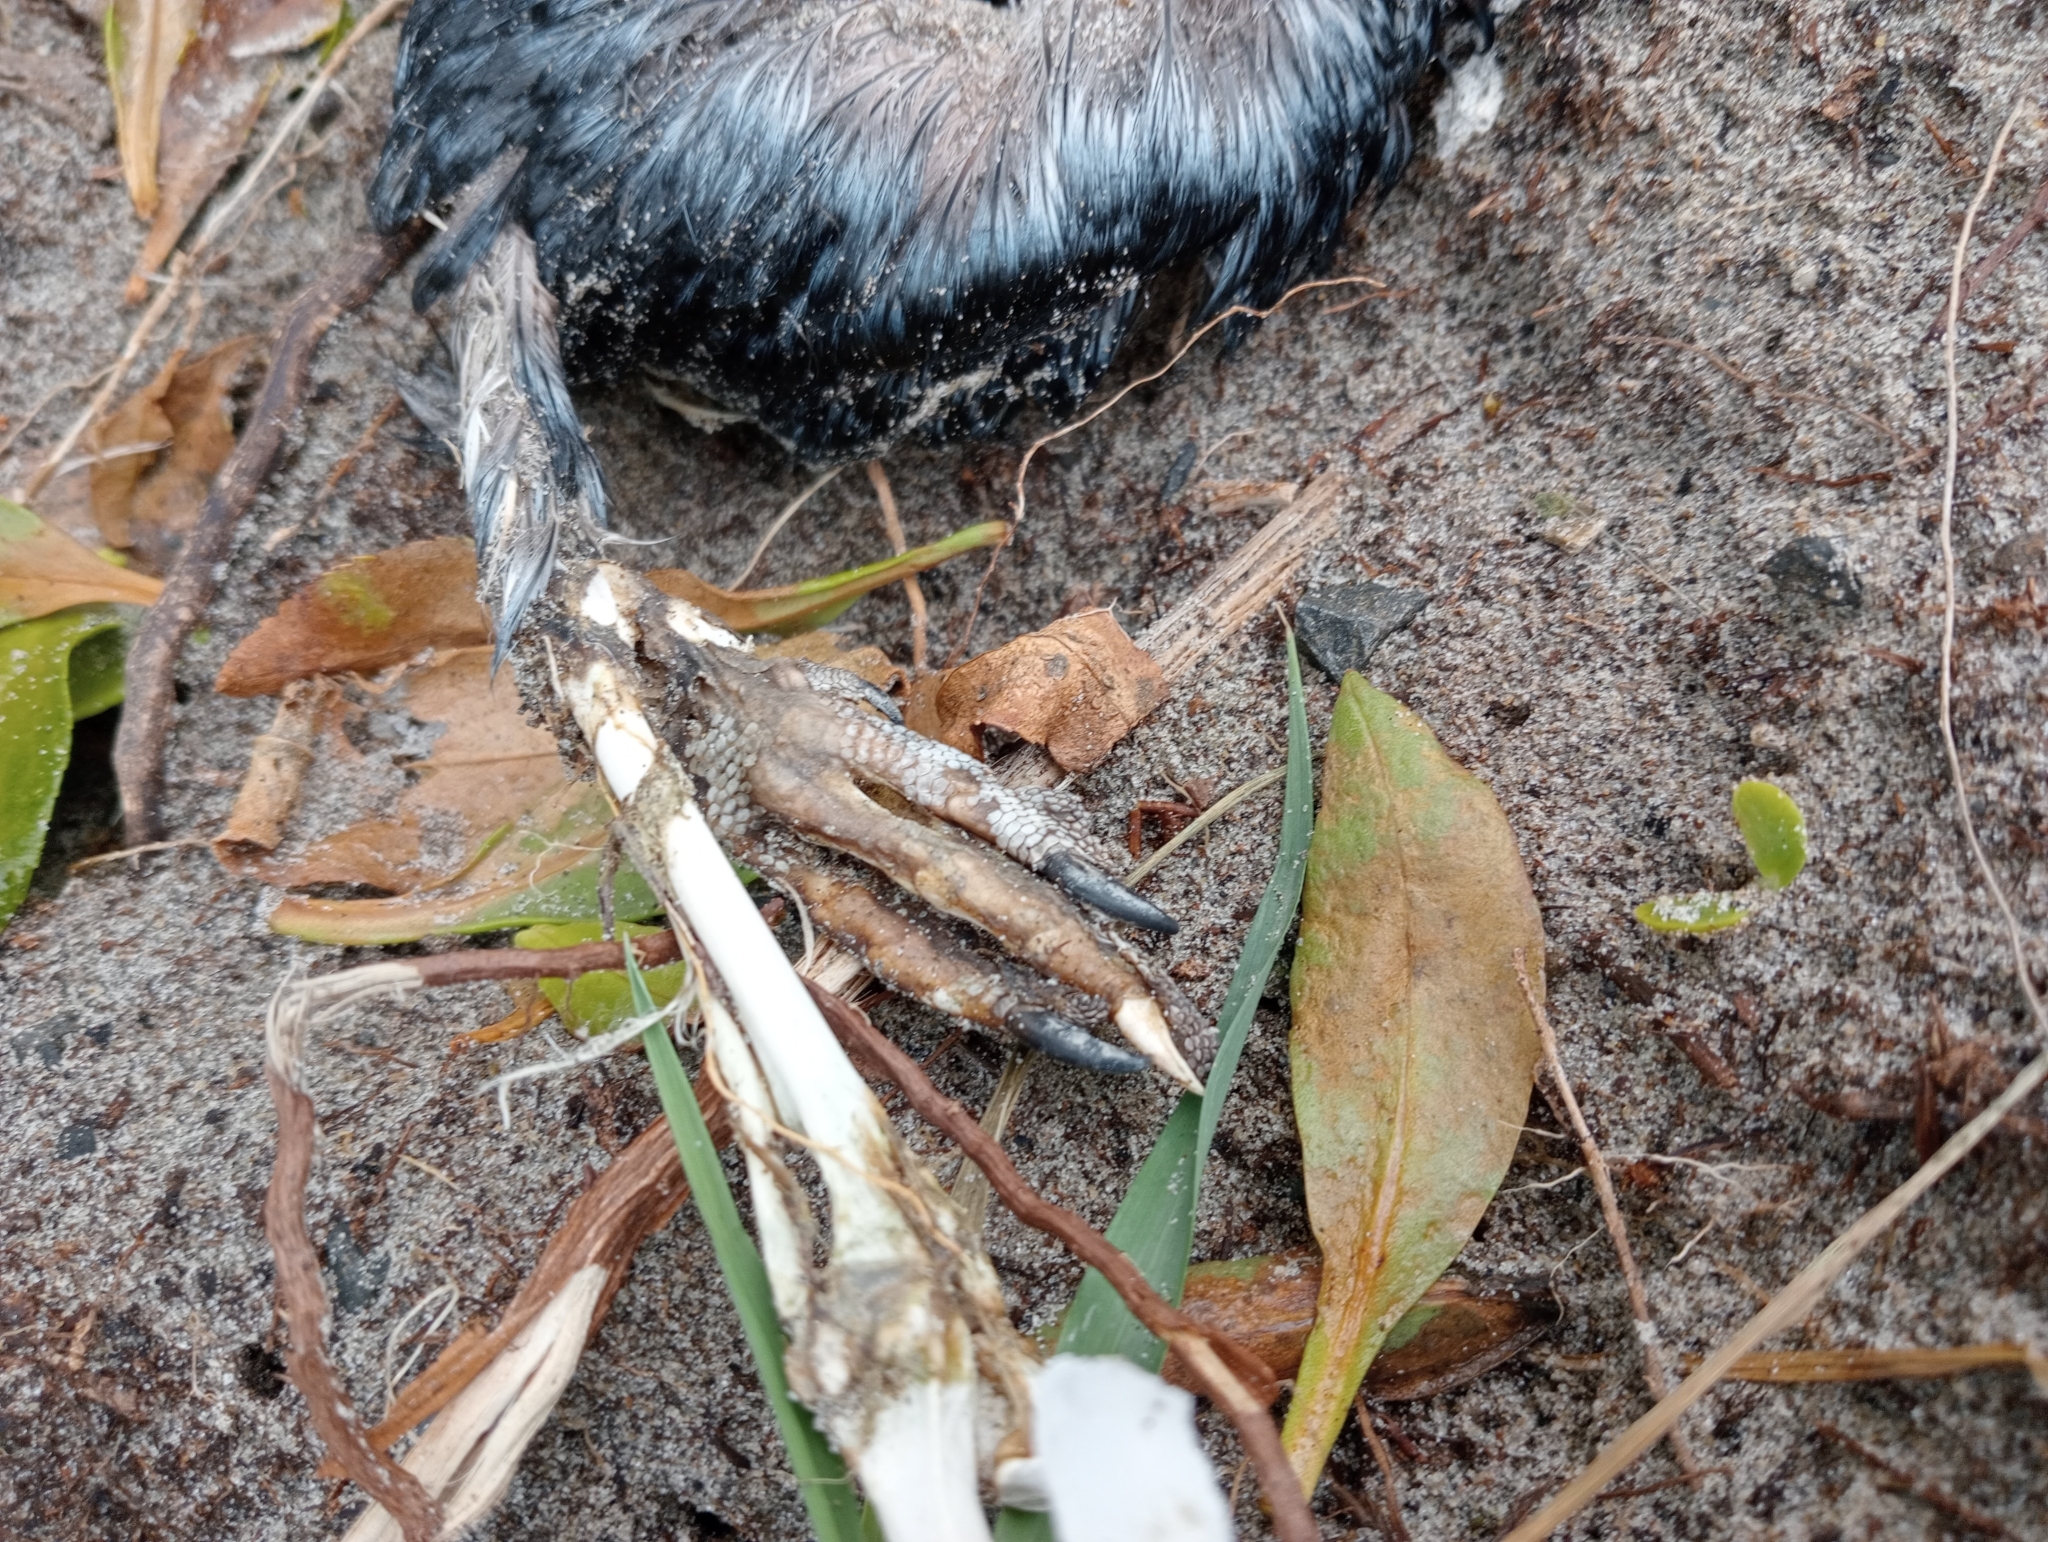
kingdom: Animalia
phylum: Chordata
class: Aves
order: Sphenisciformes
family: Spheniscidae
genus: Eudyptula
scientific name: Eudyptula minor
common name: Little penguin
